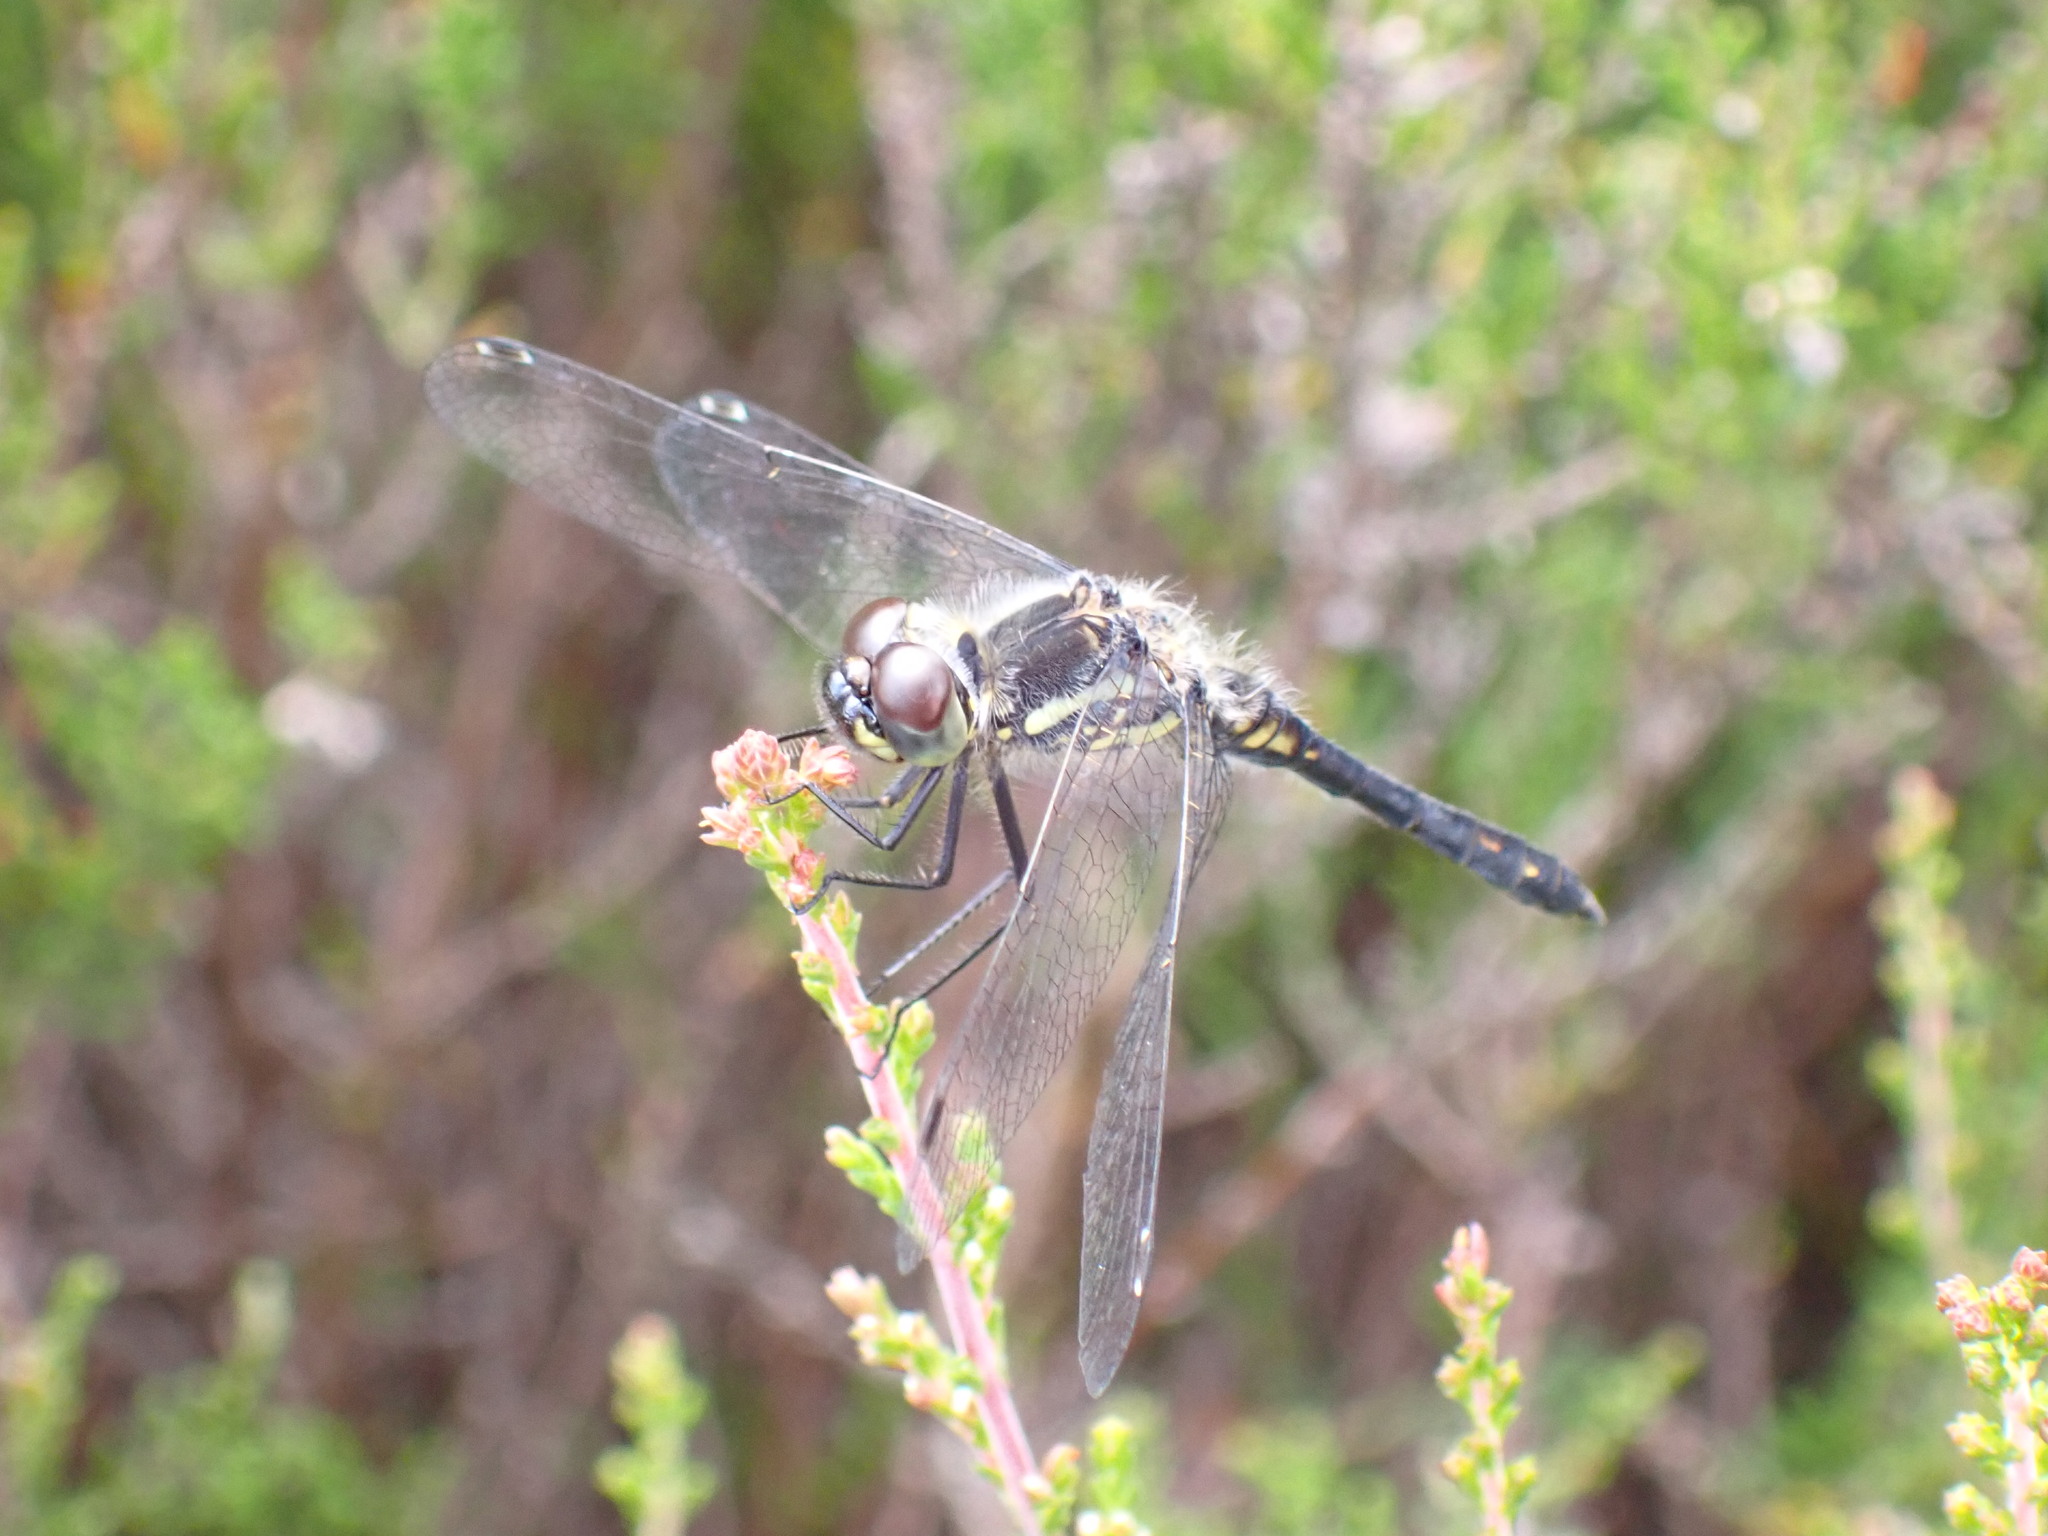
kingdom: Animalia
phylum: Arthropoda
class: Insecta
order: Odonata
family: Libellulidae
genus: Sympetrum
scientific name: Sympetrum danae
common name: Black darter
